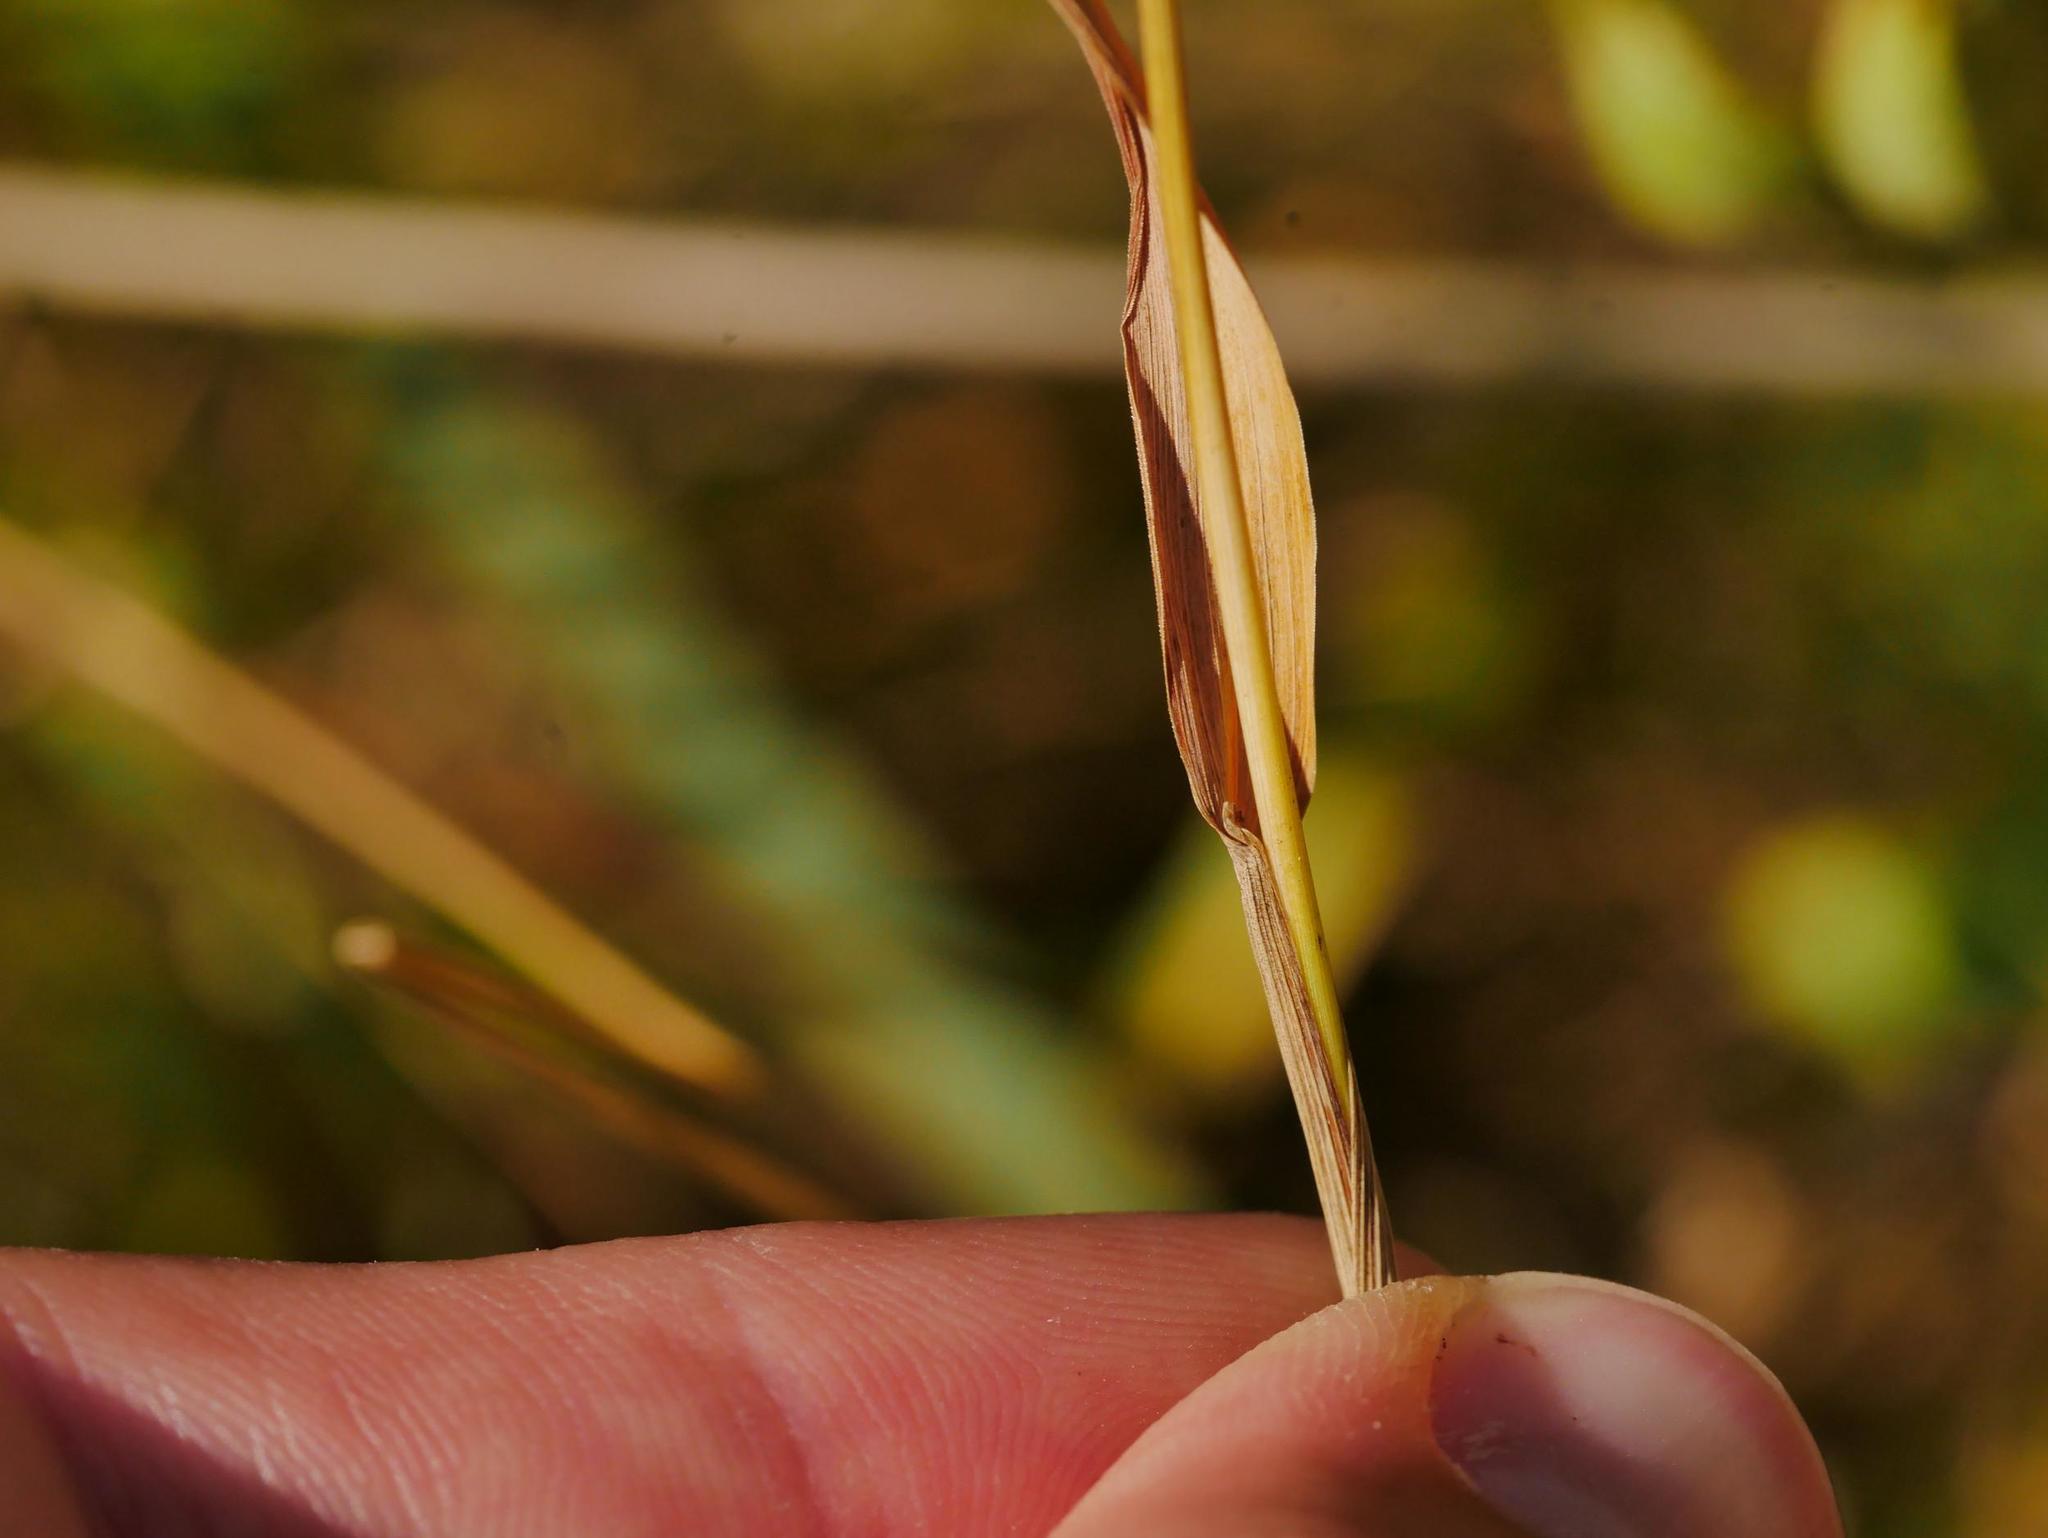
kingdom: Plantae
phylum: Tracheophyta
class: Liliopsida
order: Poales
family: Poaceae
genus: Phleum
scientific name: Phleum pratense
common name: Timothy grass
